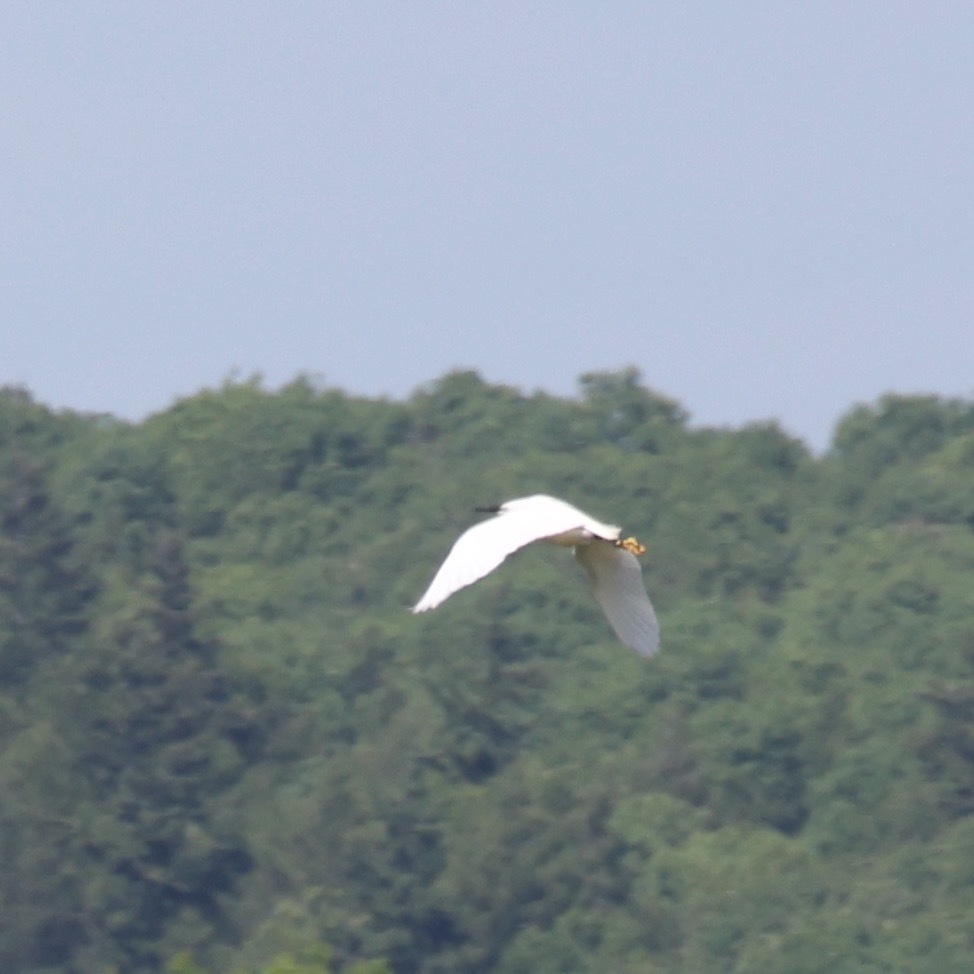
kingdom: Animalia
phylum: Chordata
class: Aves
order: Pelecaniformes
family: Ardeidae
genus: Egretta
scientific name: Egretta garzetta
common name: Little egret
